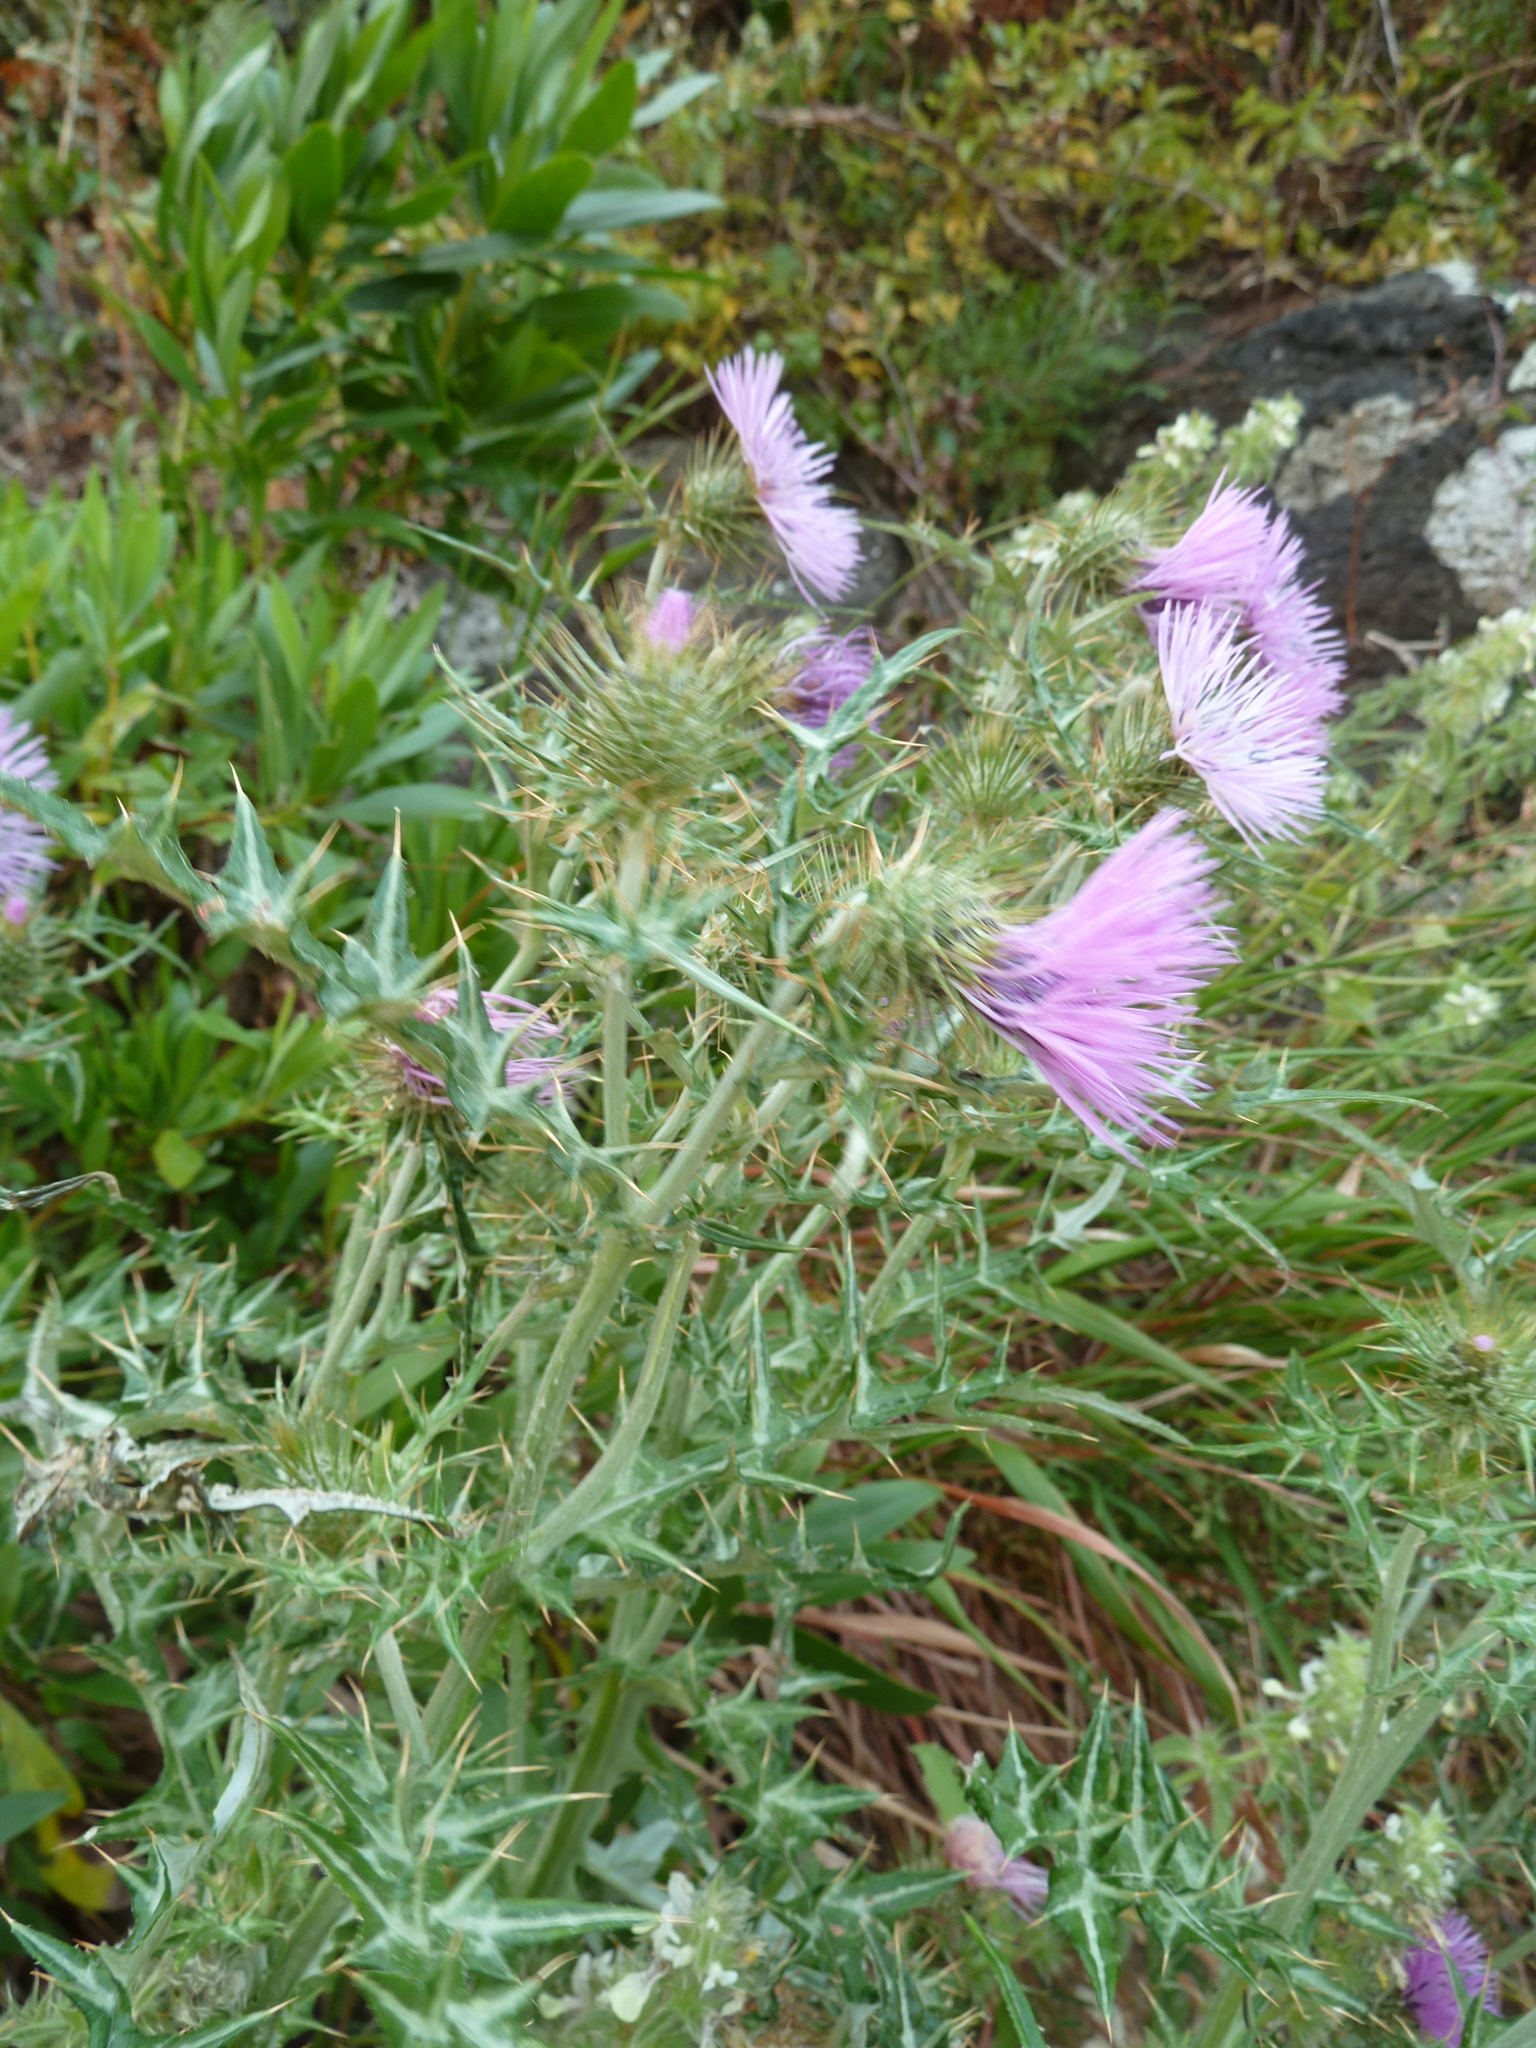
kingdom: Plantae
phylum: Tracheophyta
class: Magnoliopsida
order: Asterales
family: Asteraceae
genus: Galactites
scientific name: Galactites tomentosa
